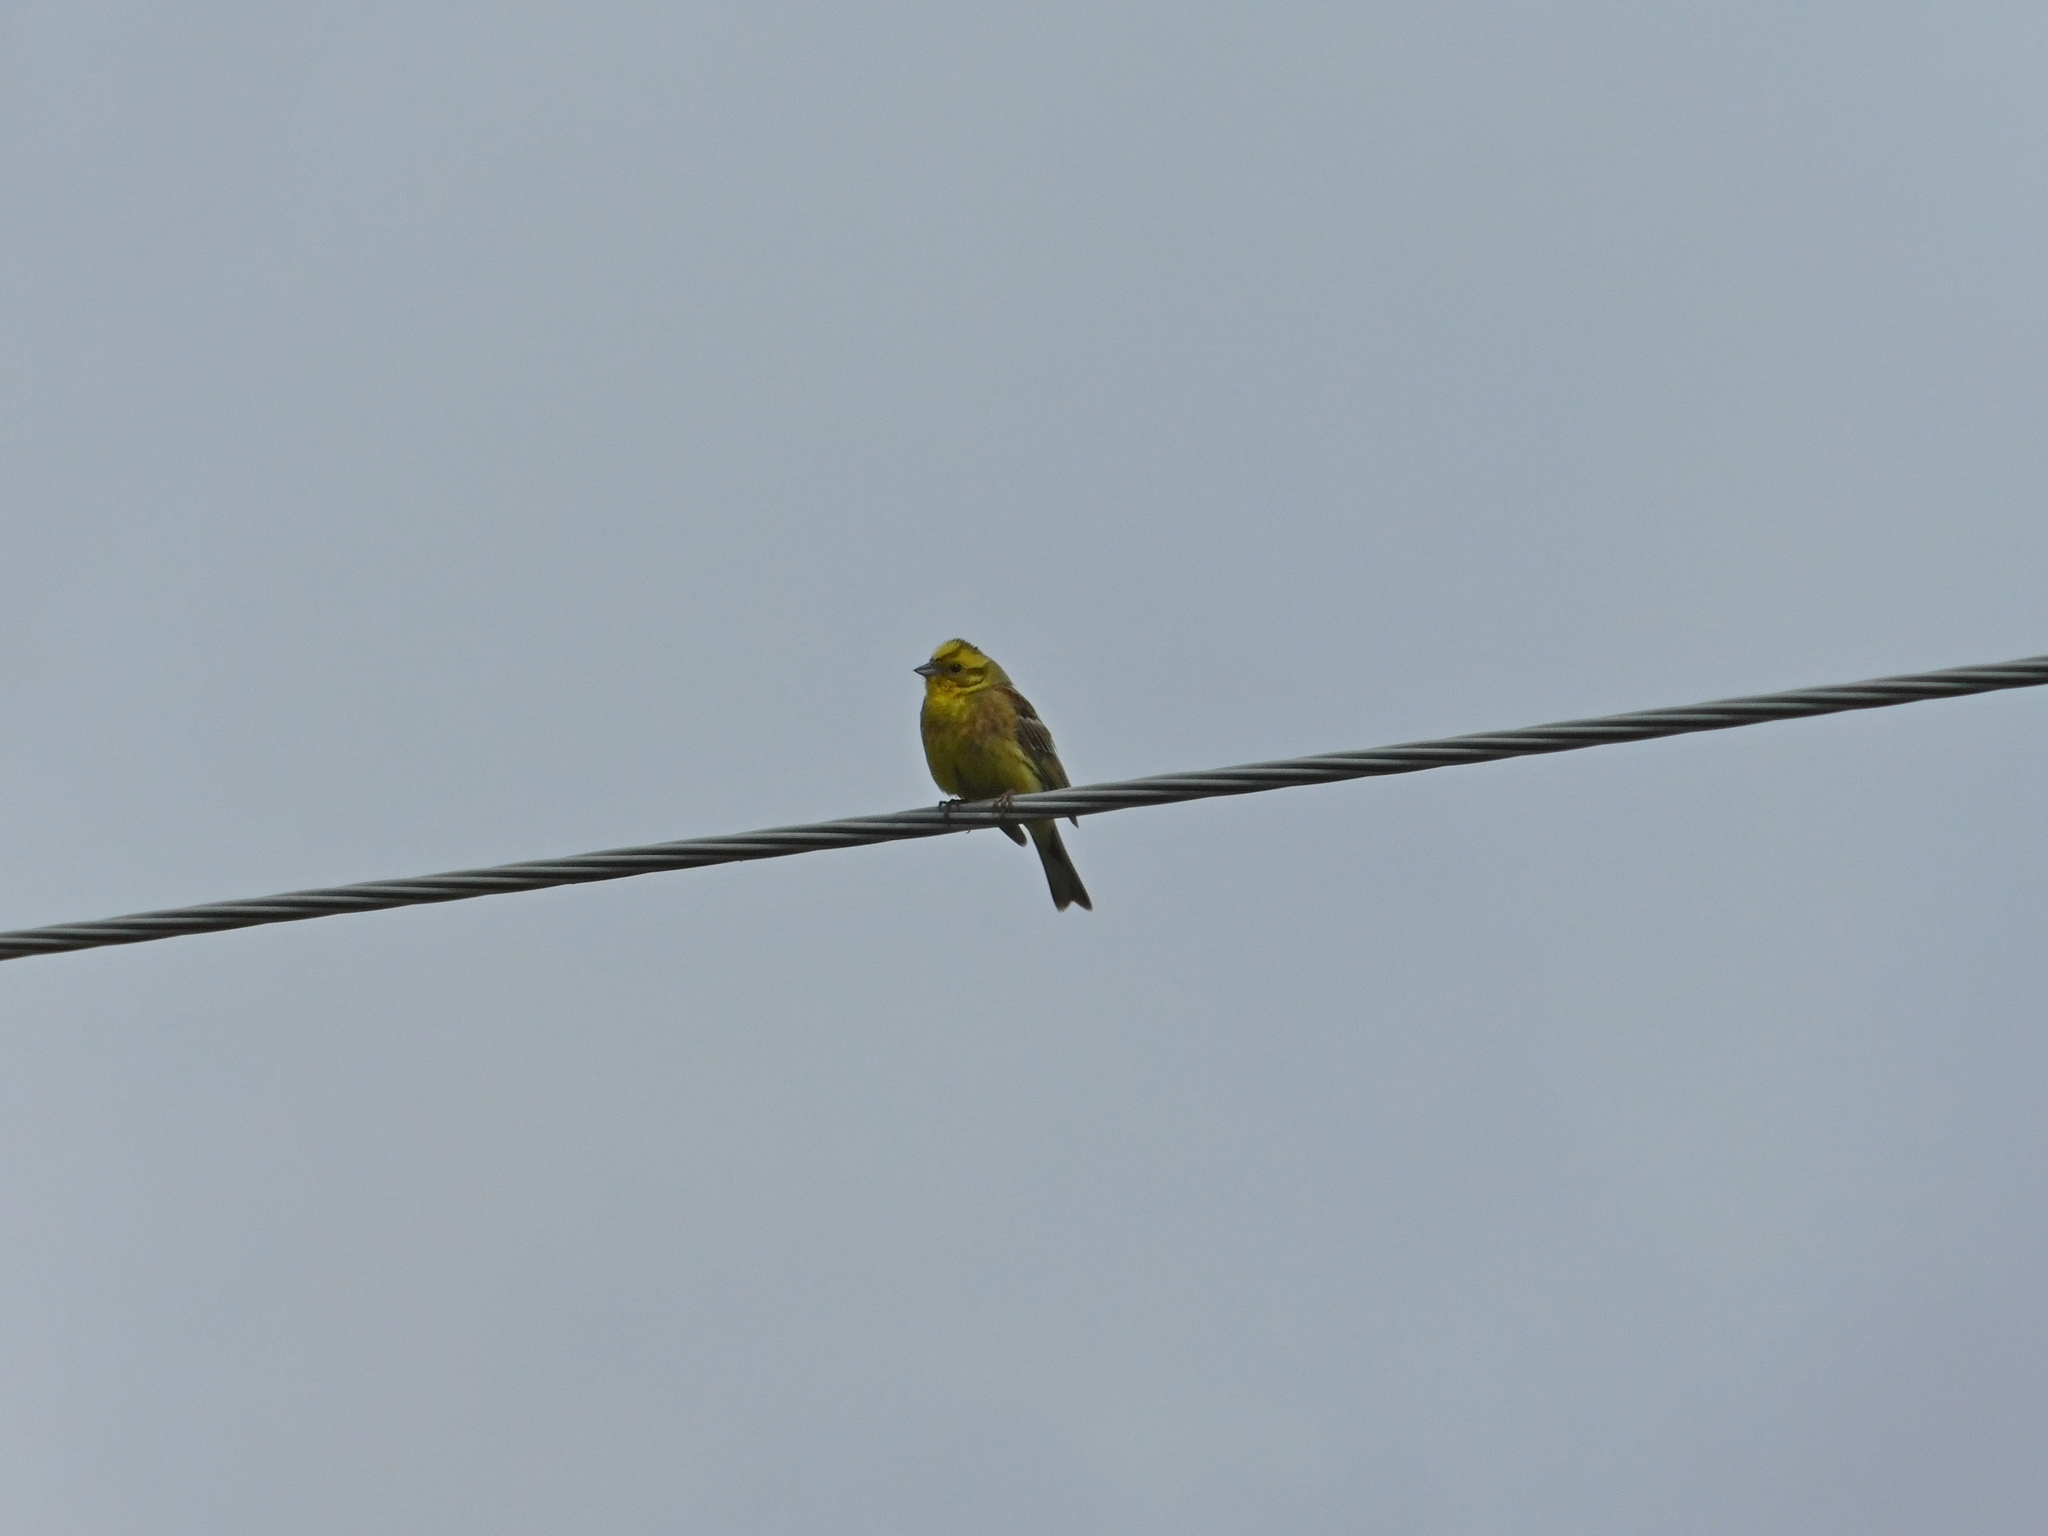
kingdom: Animalia
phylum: Chordata
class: Aves
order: Passeriformes
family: Emberizidae
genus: Emberiza
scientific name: Emberiza citrinella
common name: Yellowhammer
